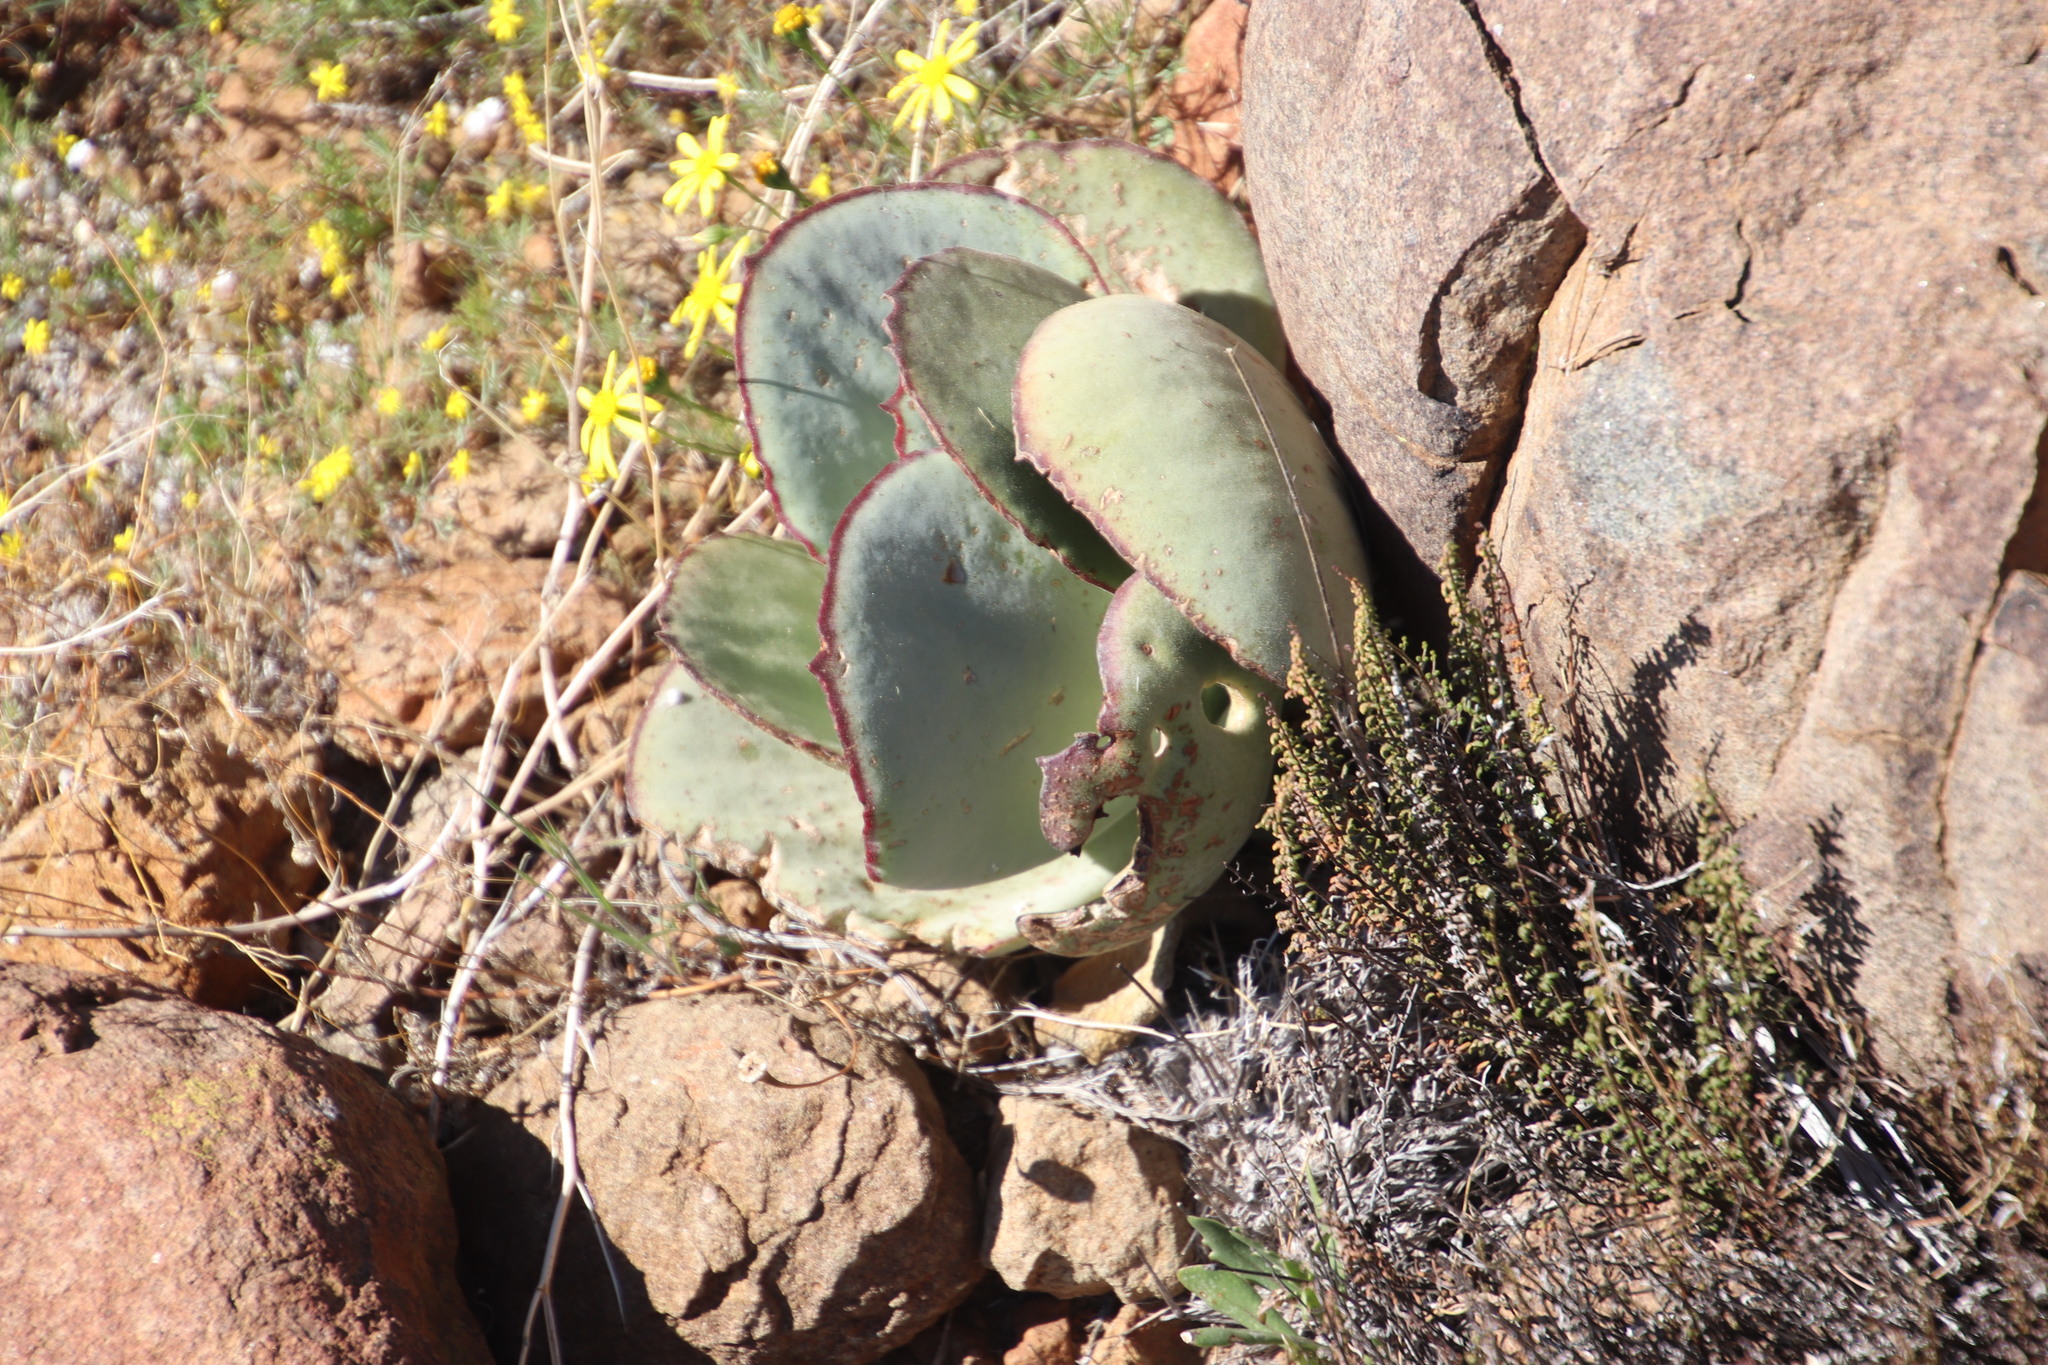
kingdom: Plantae
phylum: Tracheophyta
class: Magnoliopsida
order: Saxifragales
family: Crassulaceae
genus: Cotyledon
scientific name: Cotyledon orbiculata
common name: Pig's ear
